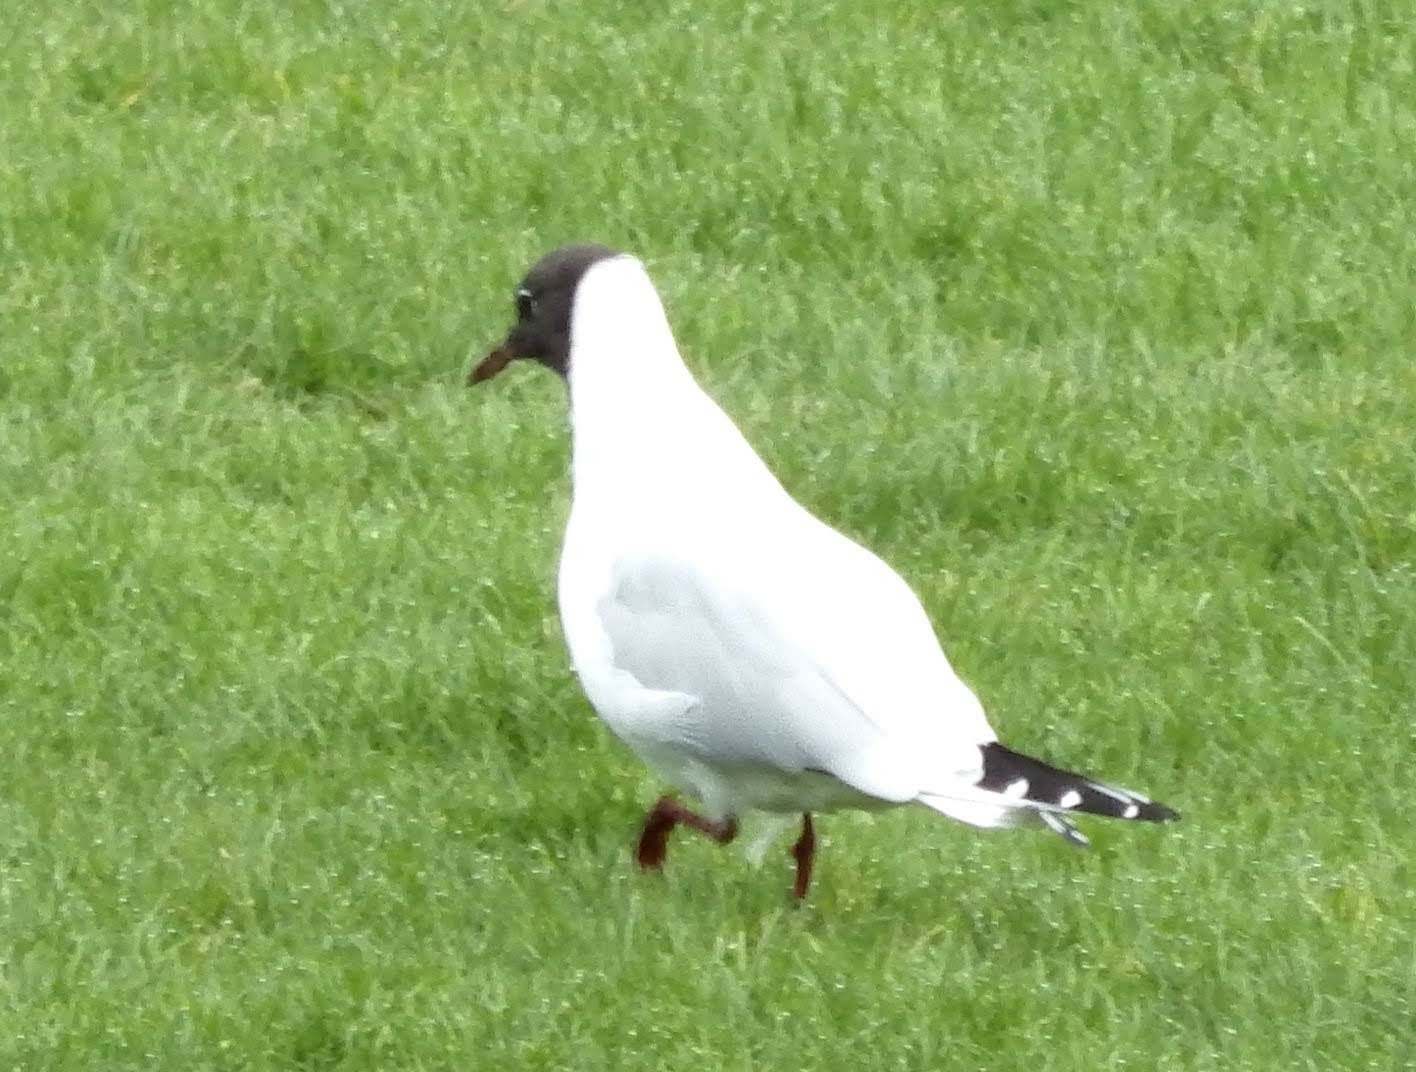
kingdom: Animalia
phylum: Chordata
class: Aves
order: Charadriiformes
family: Laridae
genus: Chroicocephalus
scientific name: Chroicocephalus ridibundus
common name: Black-headed gull
